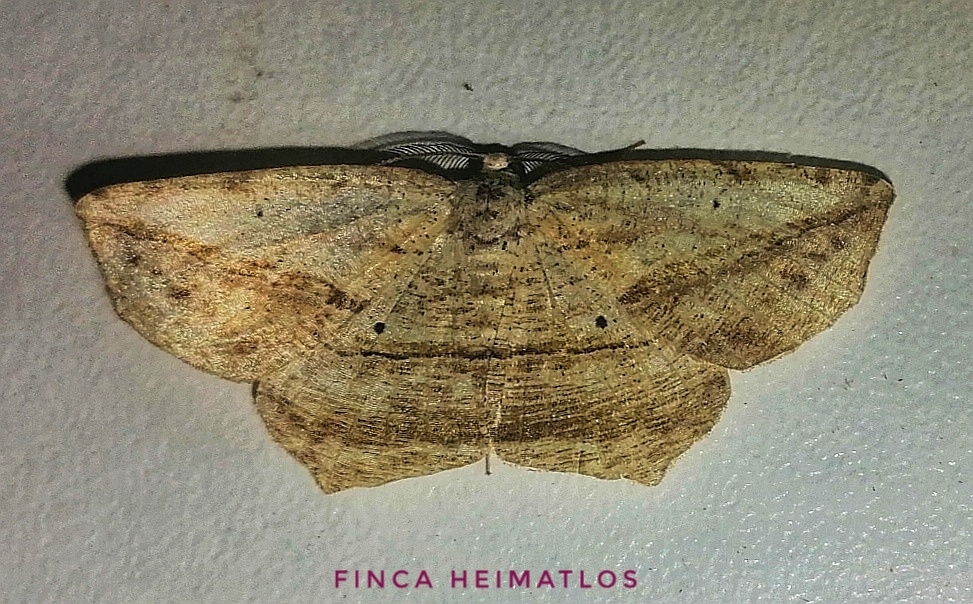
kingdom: Animalia
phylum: Arthropoda
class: Insecta
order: Lepidoptera
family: Geometridae
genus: Eusarca
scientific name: Eusarca flexilis
